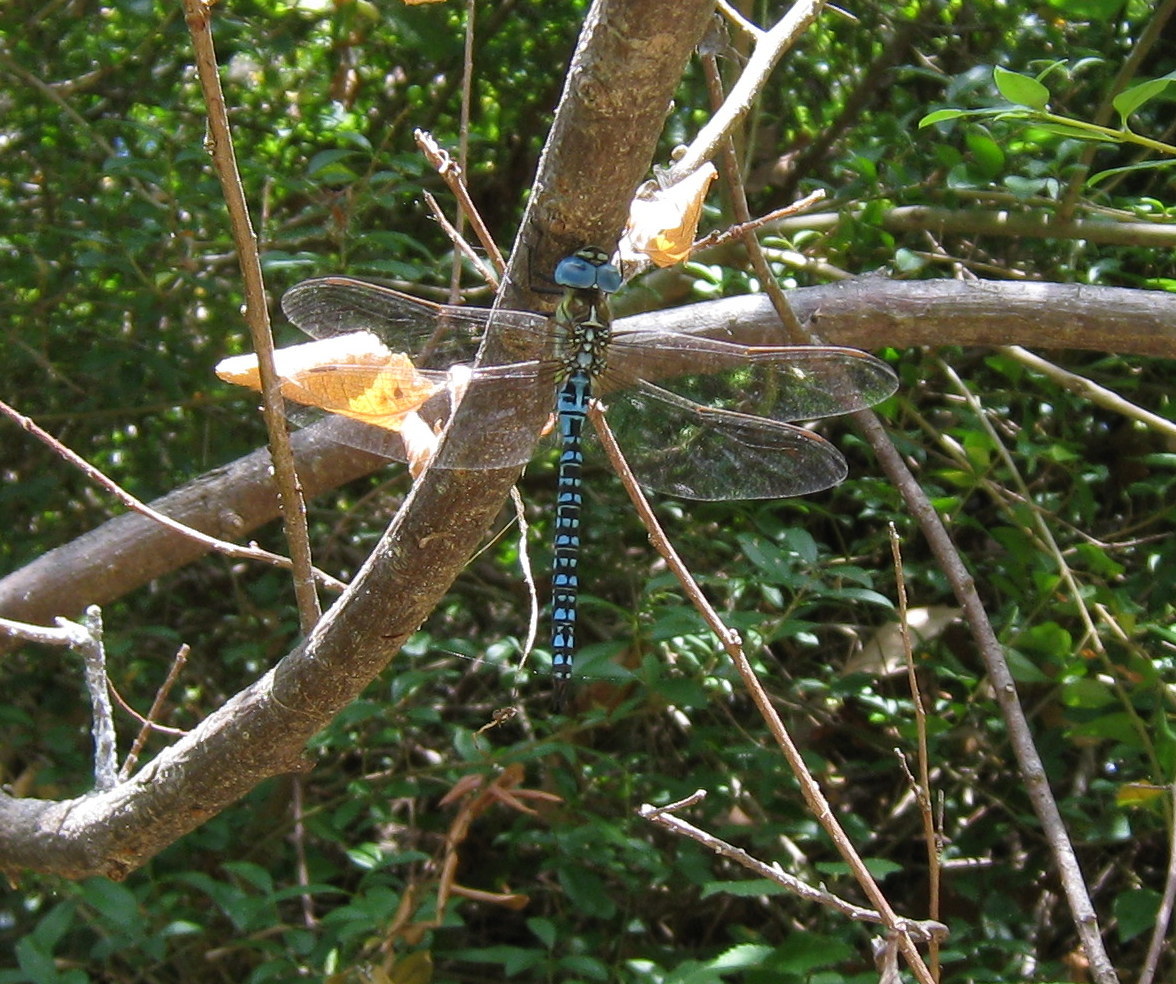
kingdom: Animalia
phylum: Arthropoda
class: Insecta
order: Odonata
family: Aeshnidae
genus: Aeshna
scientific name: Aeshna affinis
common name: Southern migrant hawker
